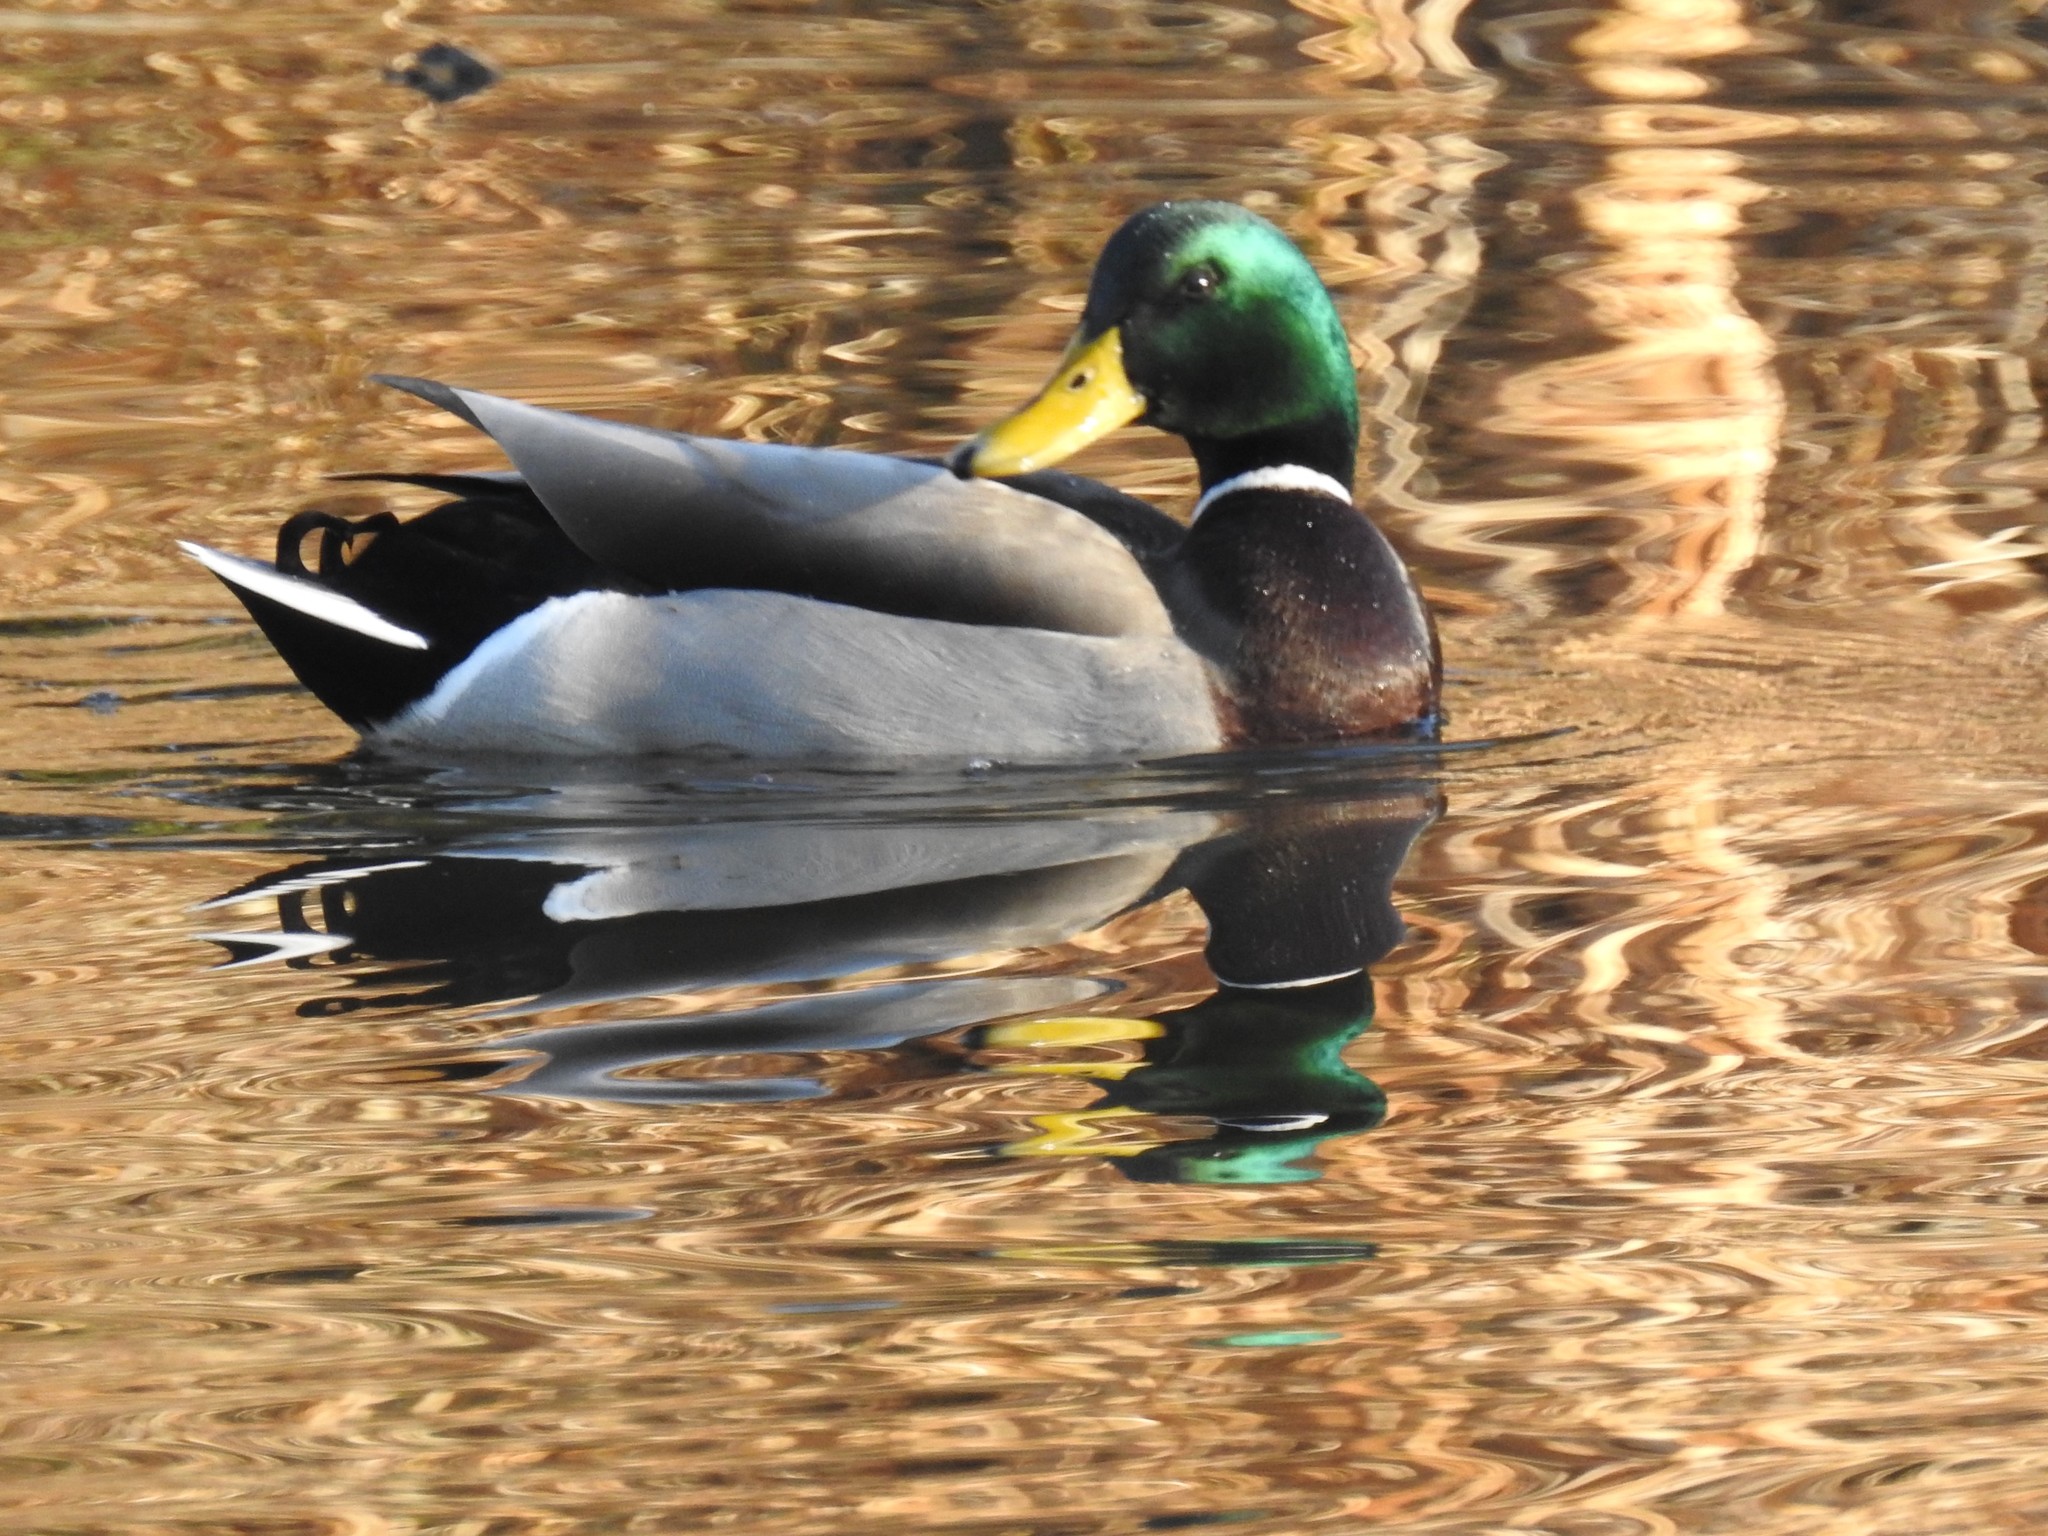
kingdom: Animalia
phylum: Chordata
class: Aves
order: Anseriformes
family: Anatidae
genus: Anas
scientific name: Anas platyrhynchos
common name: Mallard
